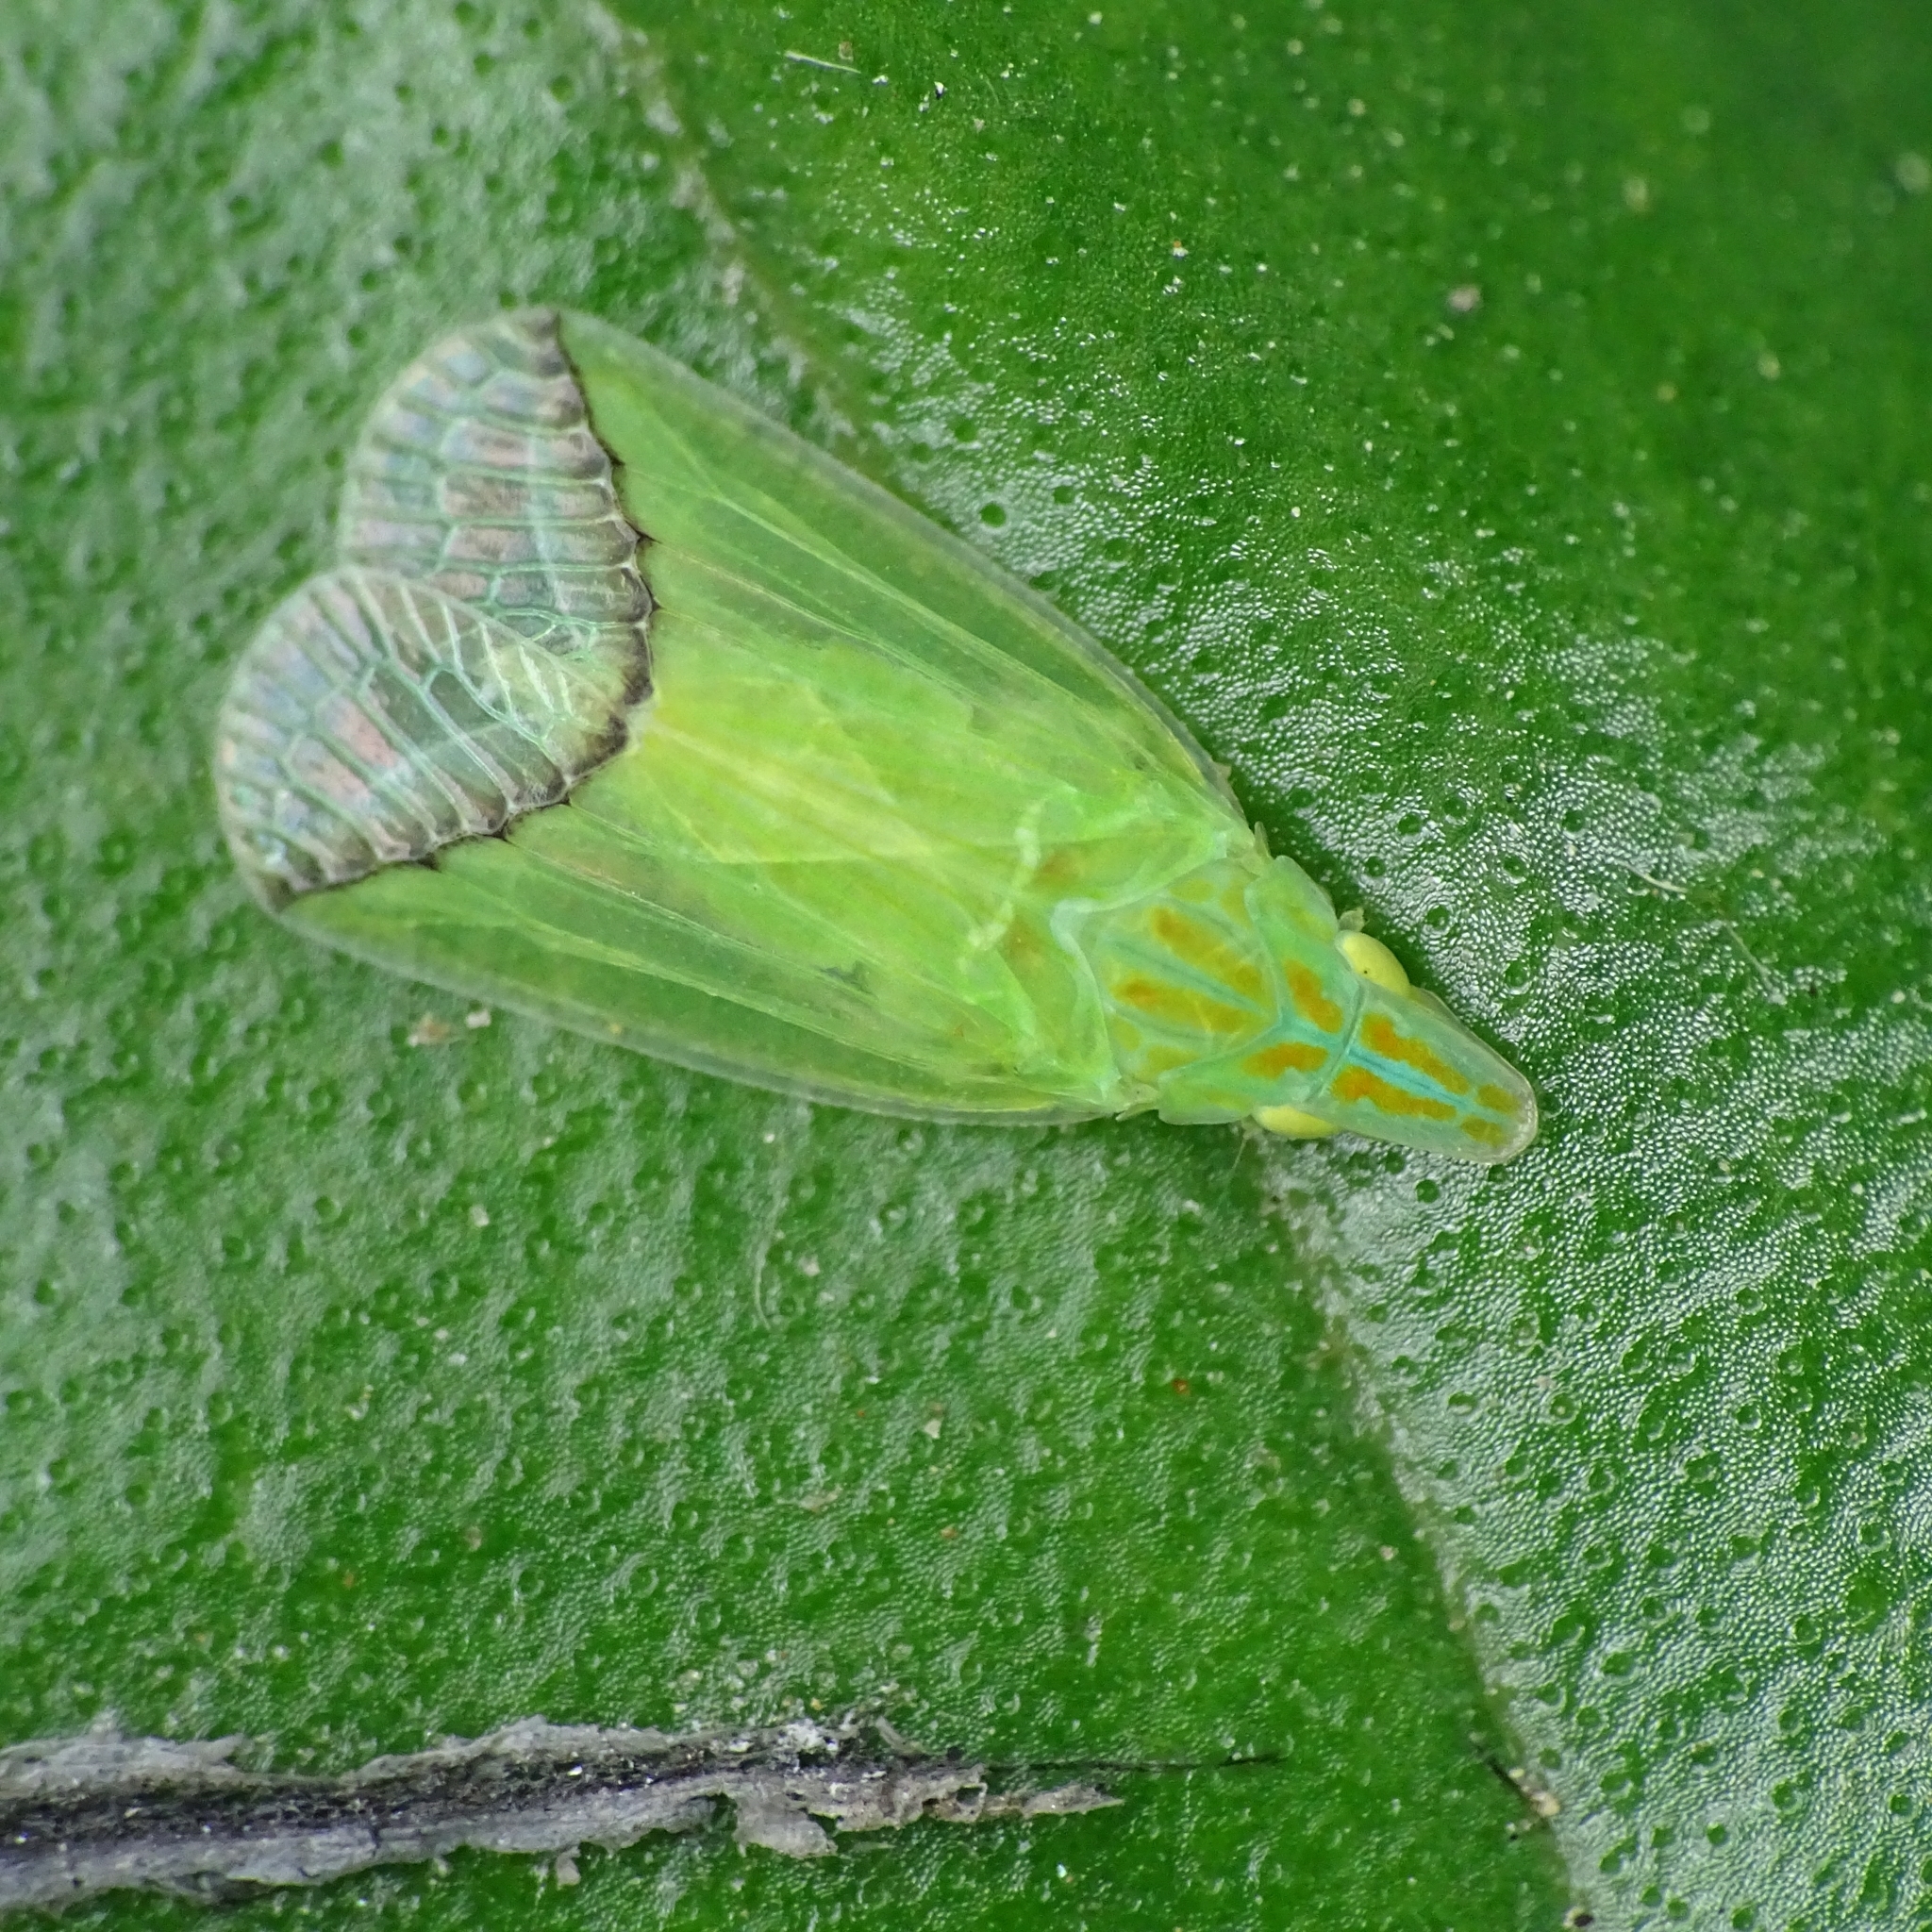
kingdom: Animalia
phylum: Arthropoda
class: Insecta
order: Hemiptera
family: Tropiduchidae
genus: Tambinia
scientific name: Tambinia verticalis
